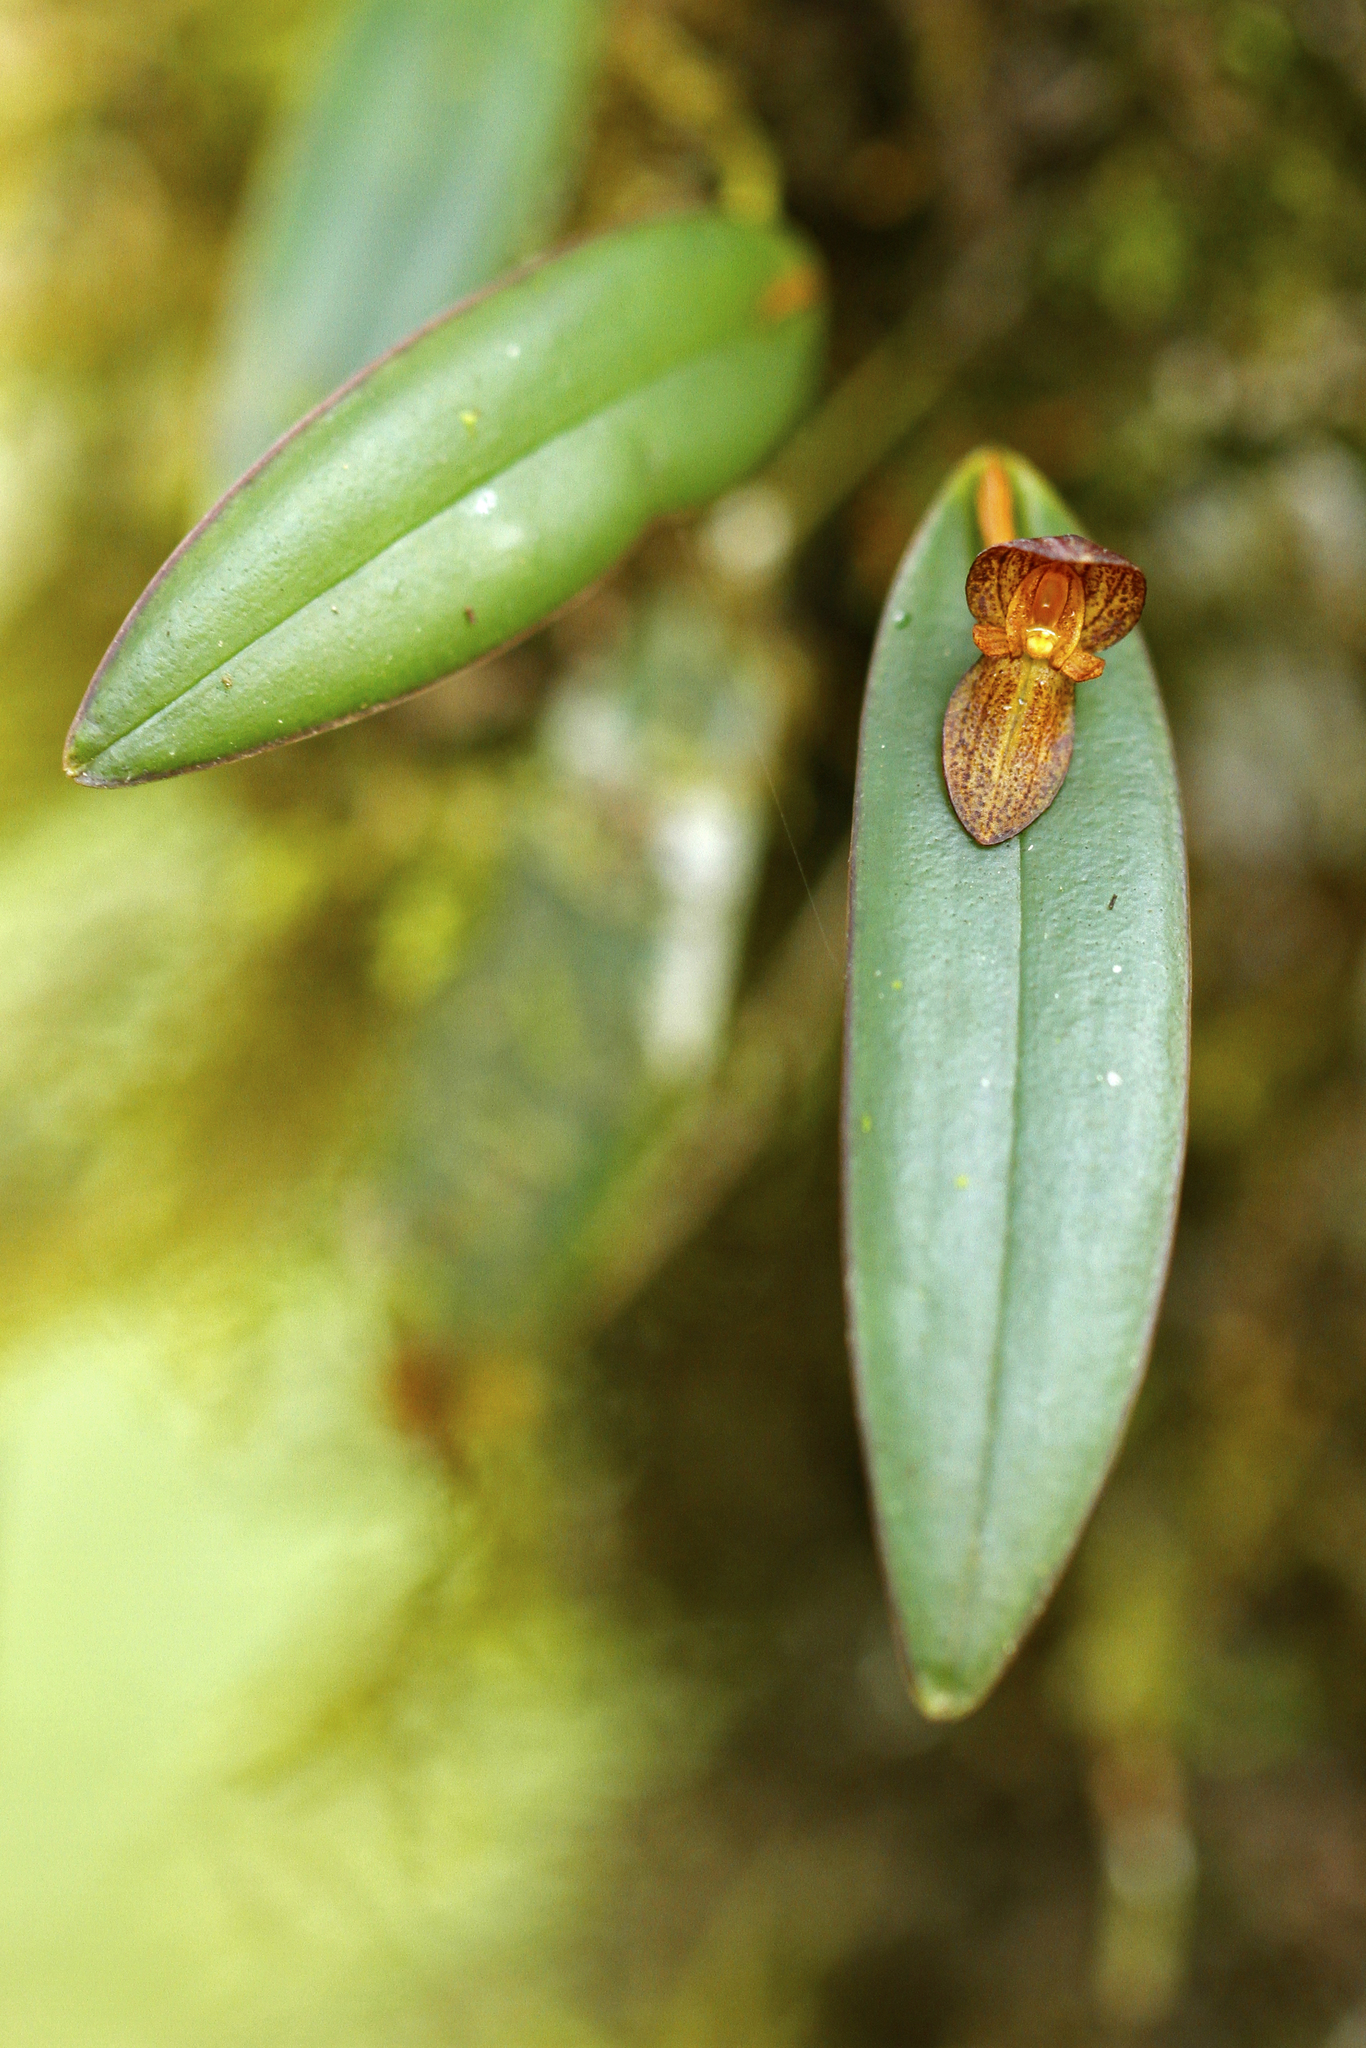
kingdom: Plantae
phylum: Tracheophyta
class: Liliopsida
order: Asparagales
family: Orchidaceae
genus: Pleurothallis
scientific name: Pleurothallis bogarinii
